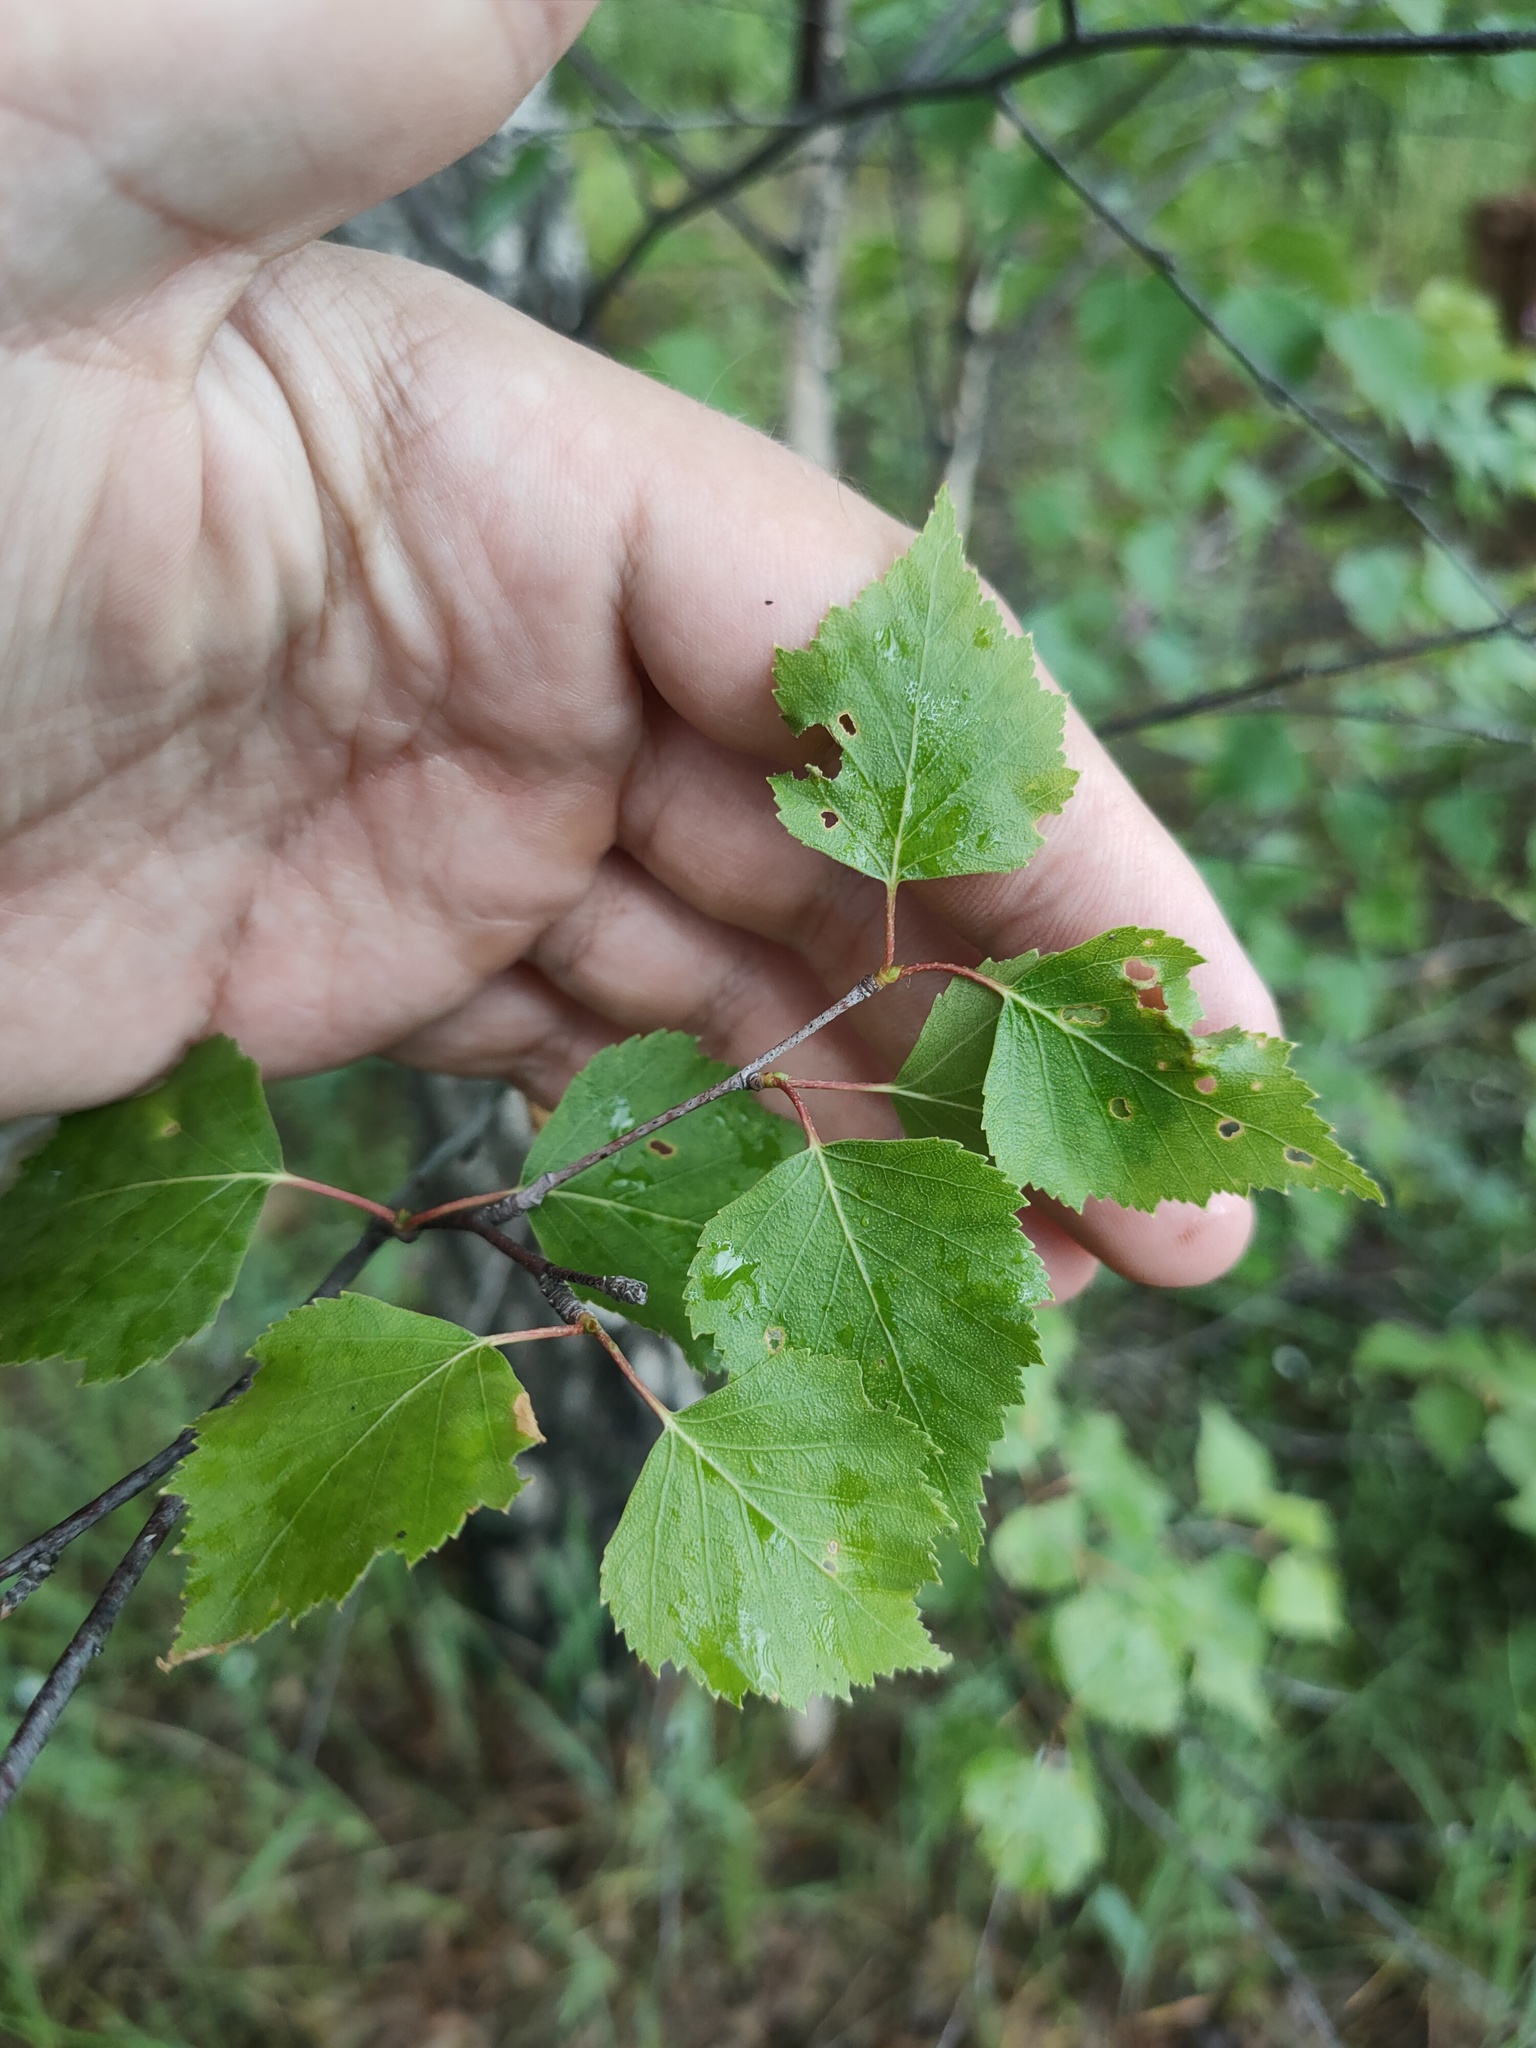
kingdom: Plantae
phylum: Tracheophyta
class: Magnoliopsida
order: Fagales
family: Betulaceae
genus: Betula
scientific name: Betula pendula
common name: Silver birch
